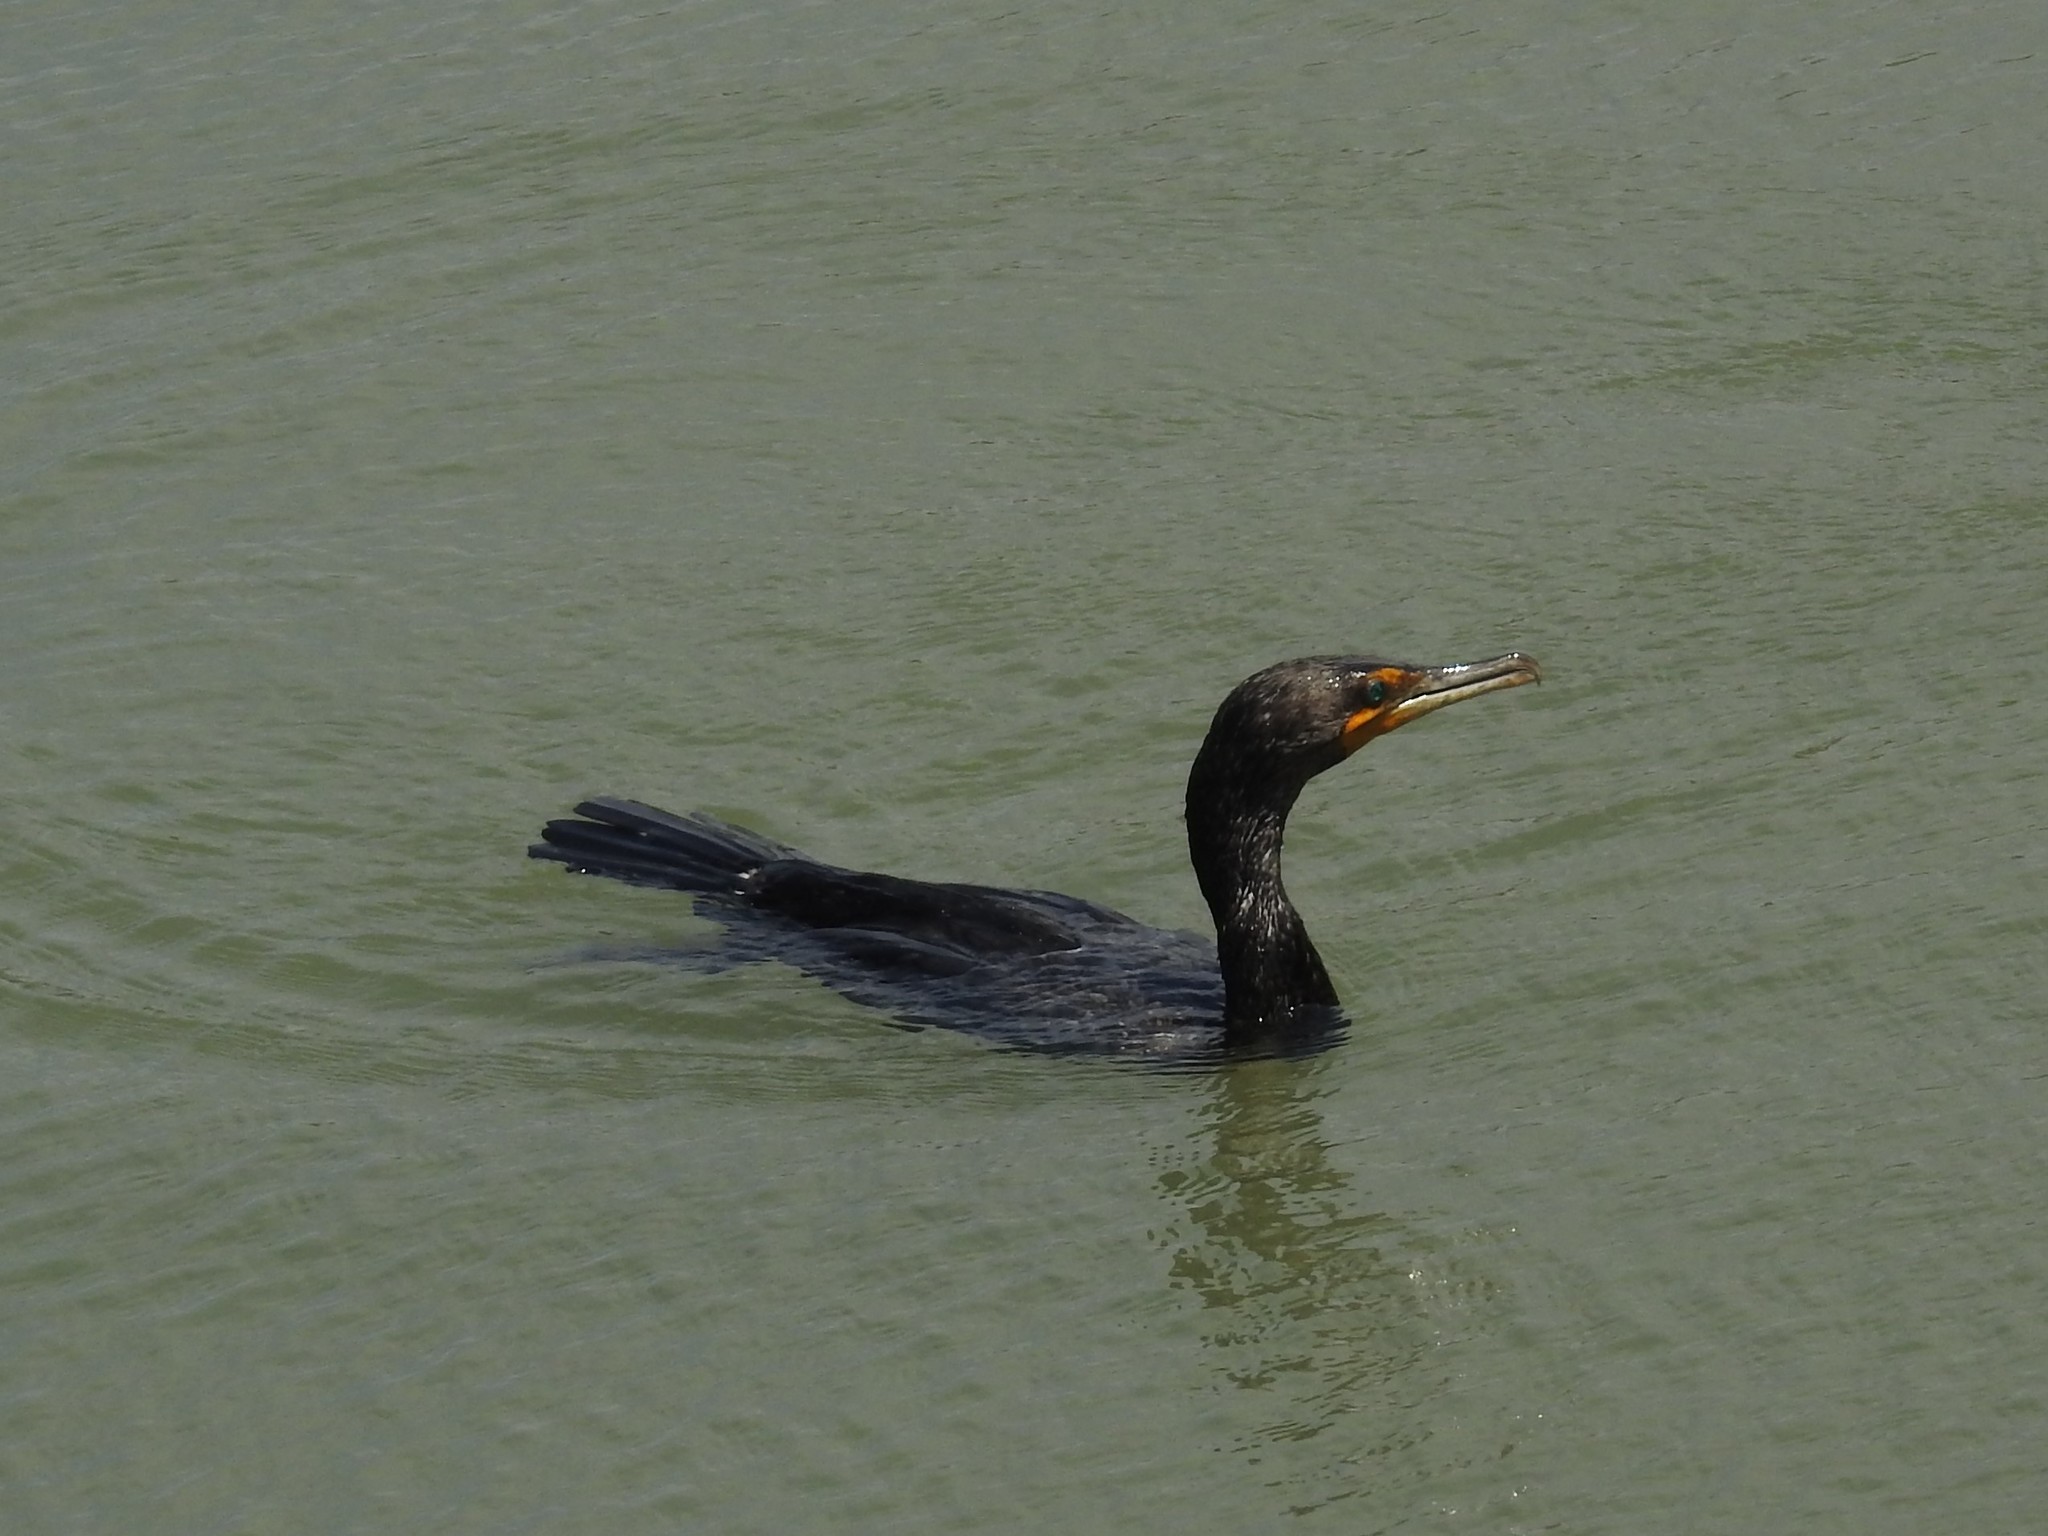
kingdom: Animalia
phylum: Chordata
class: Aves
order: Suliformes
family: Phalacrocoracidae
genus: Phalacrocorax
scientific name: Phalacrocorax auritus
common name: Double-crested cormorant
